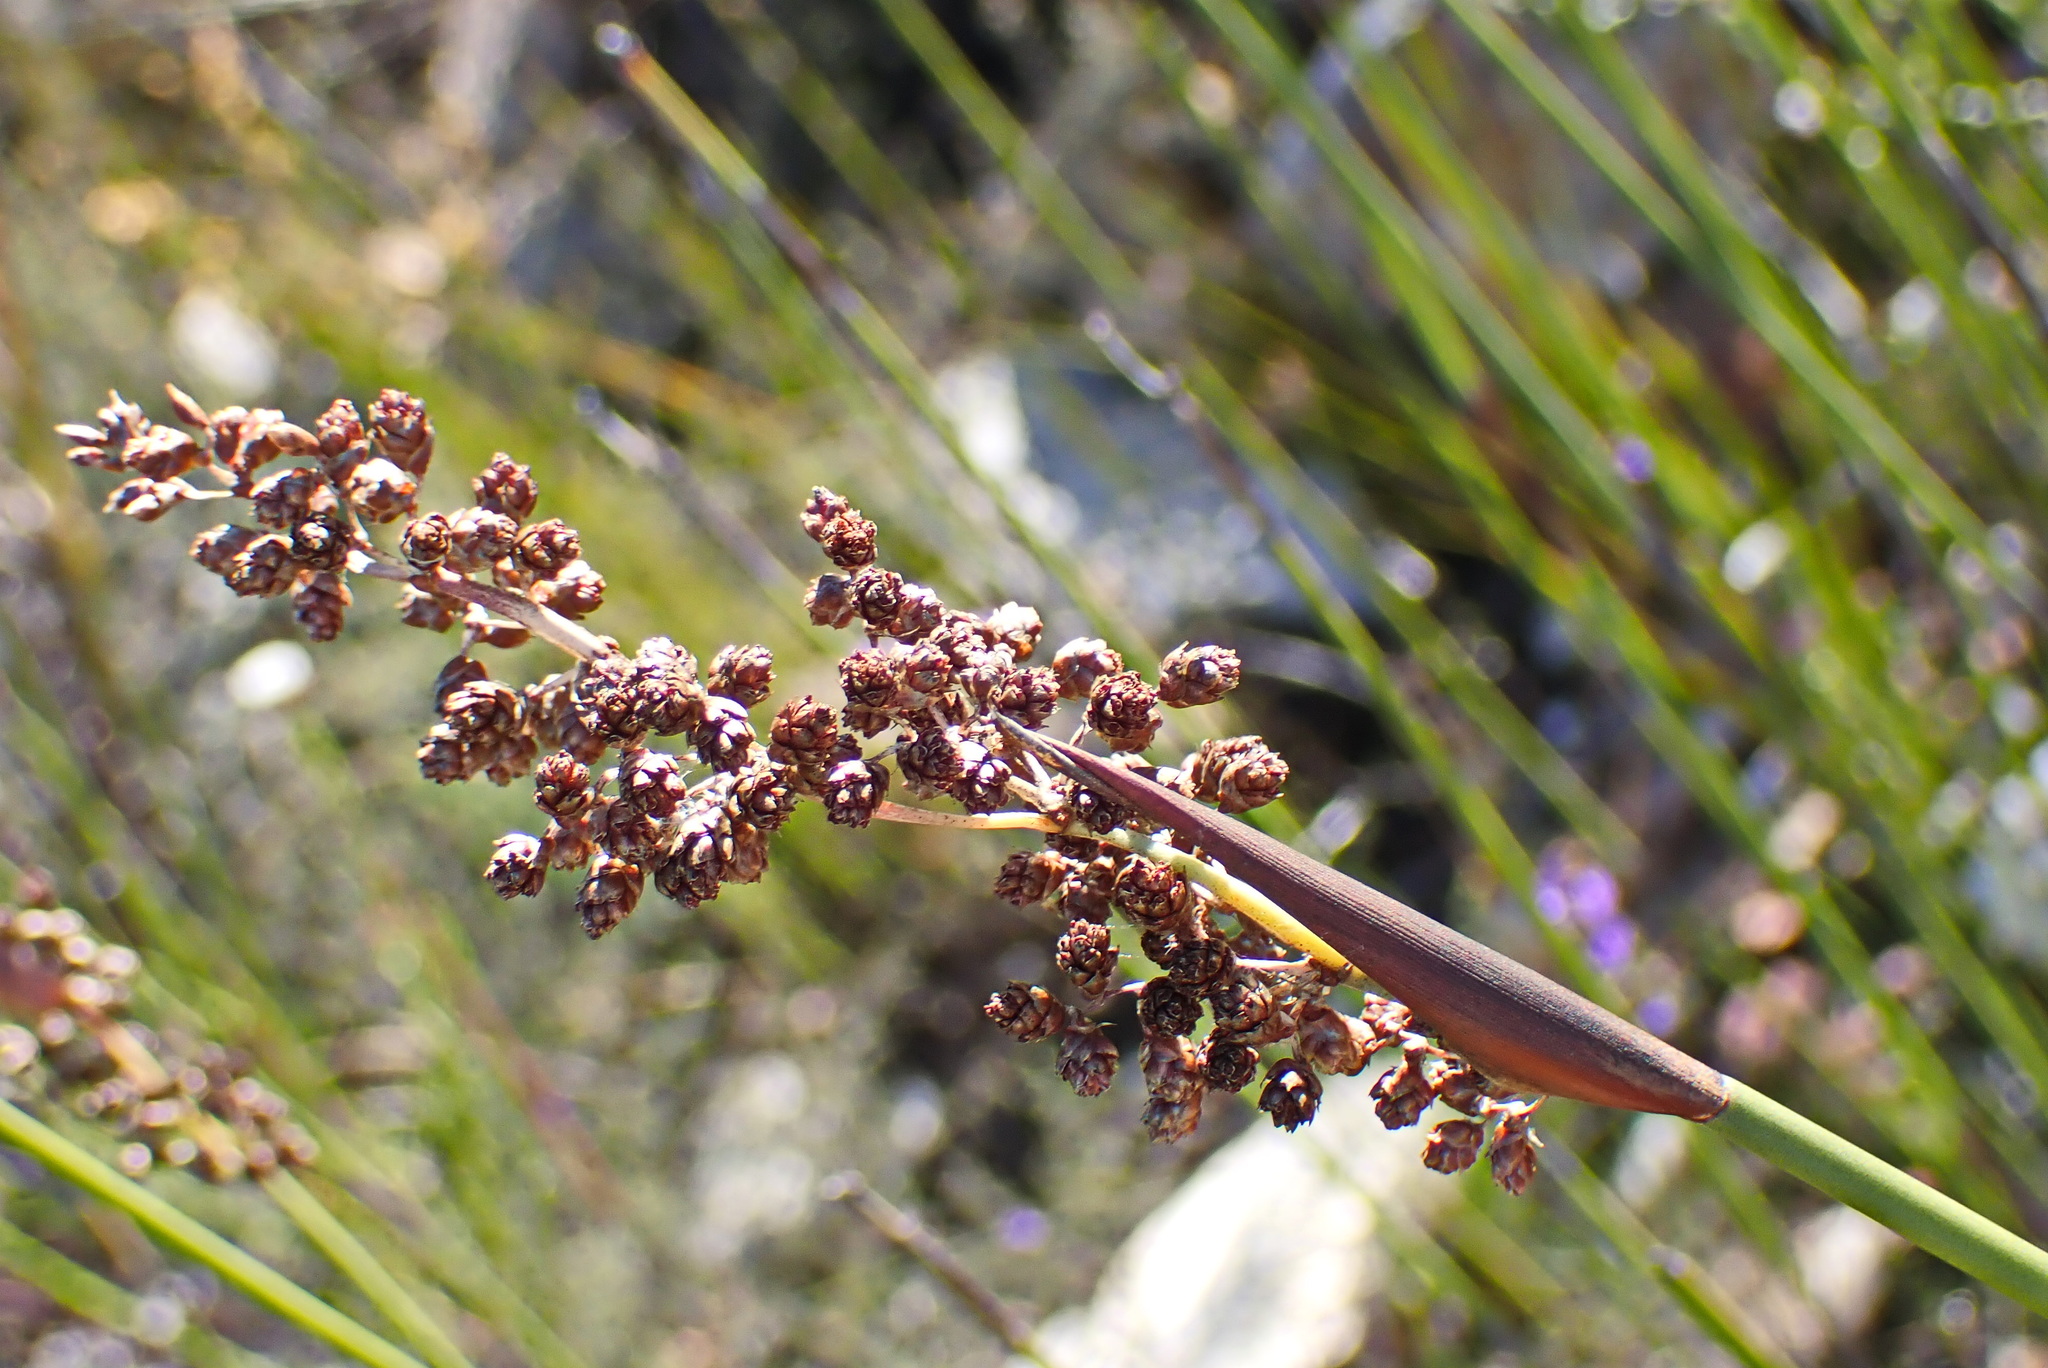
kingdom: Plantae
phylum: Tracheophyta
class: Liliopsida
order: Poales
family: Restionaceae
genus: Cannomois
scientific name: Cannomois scirpoides
